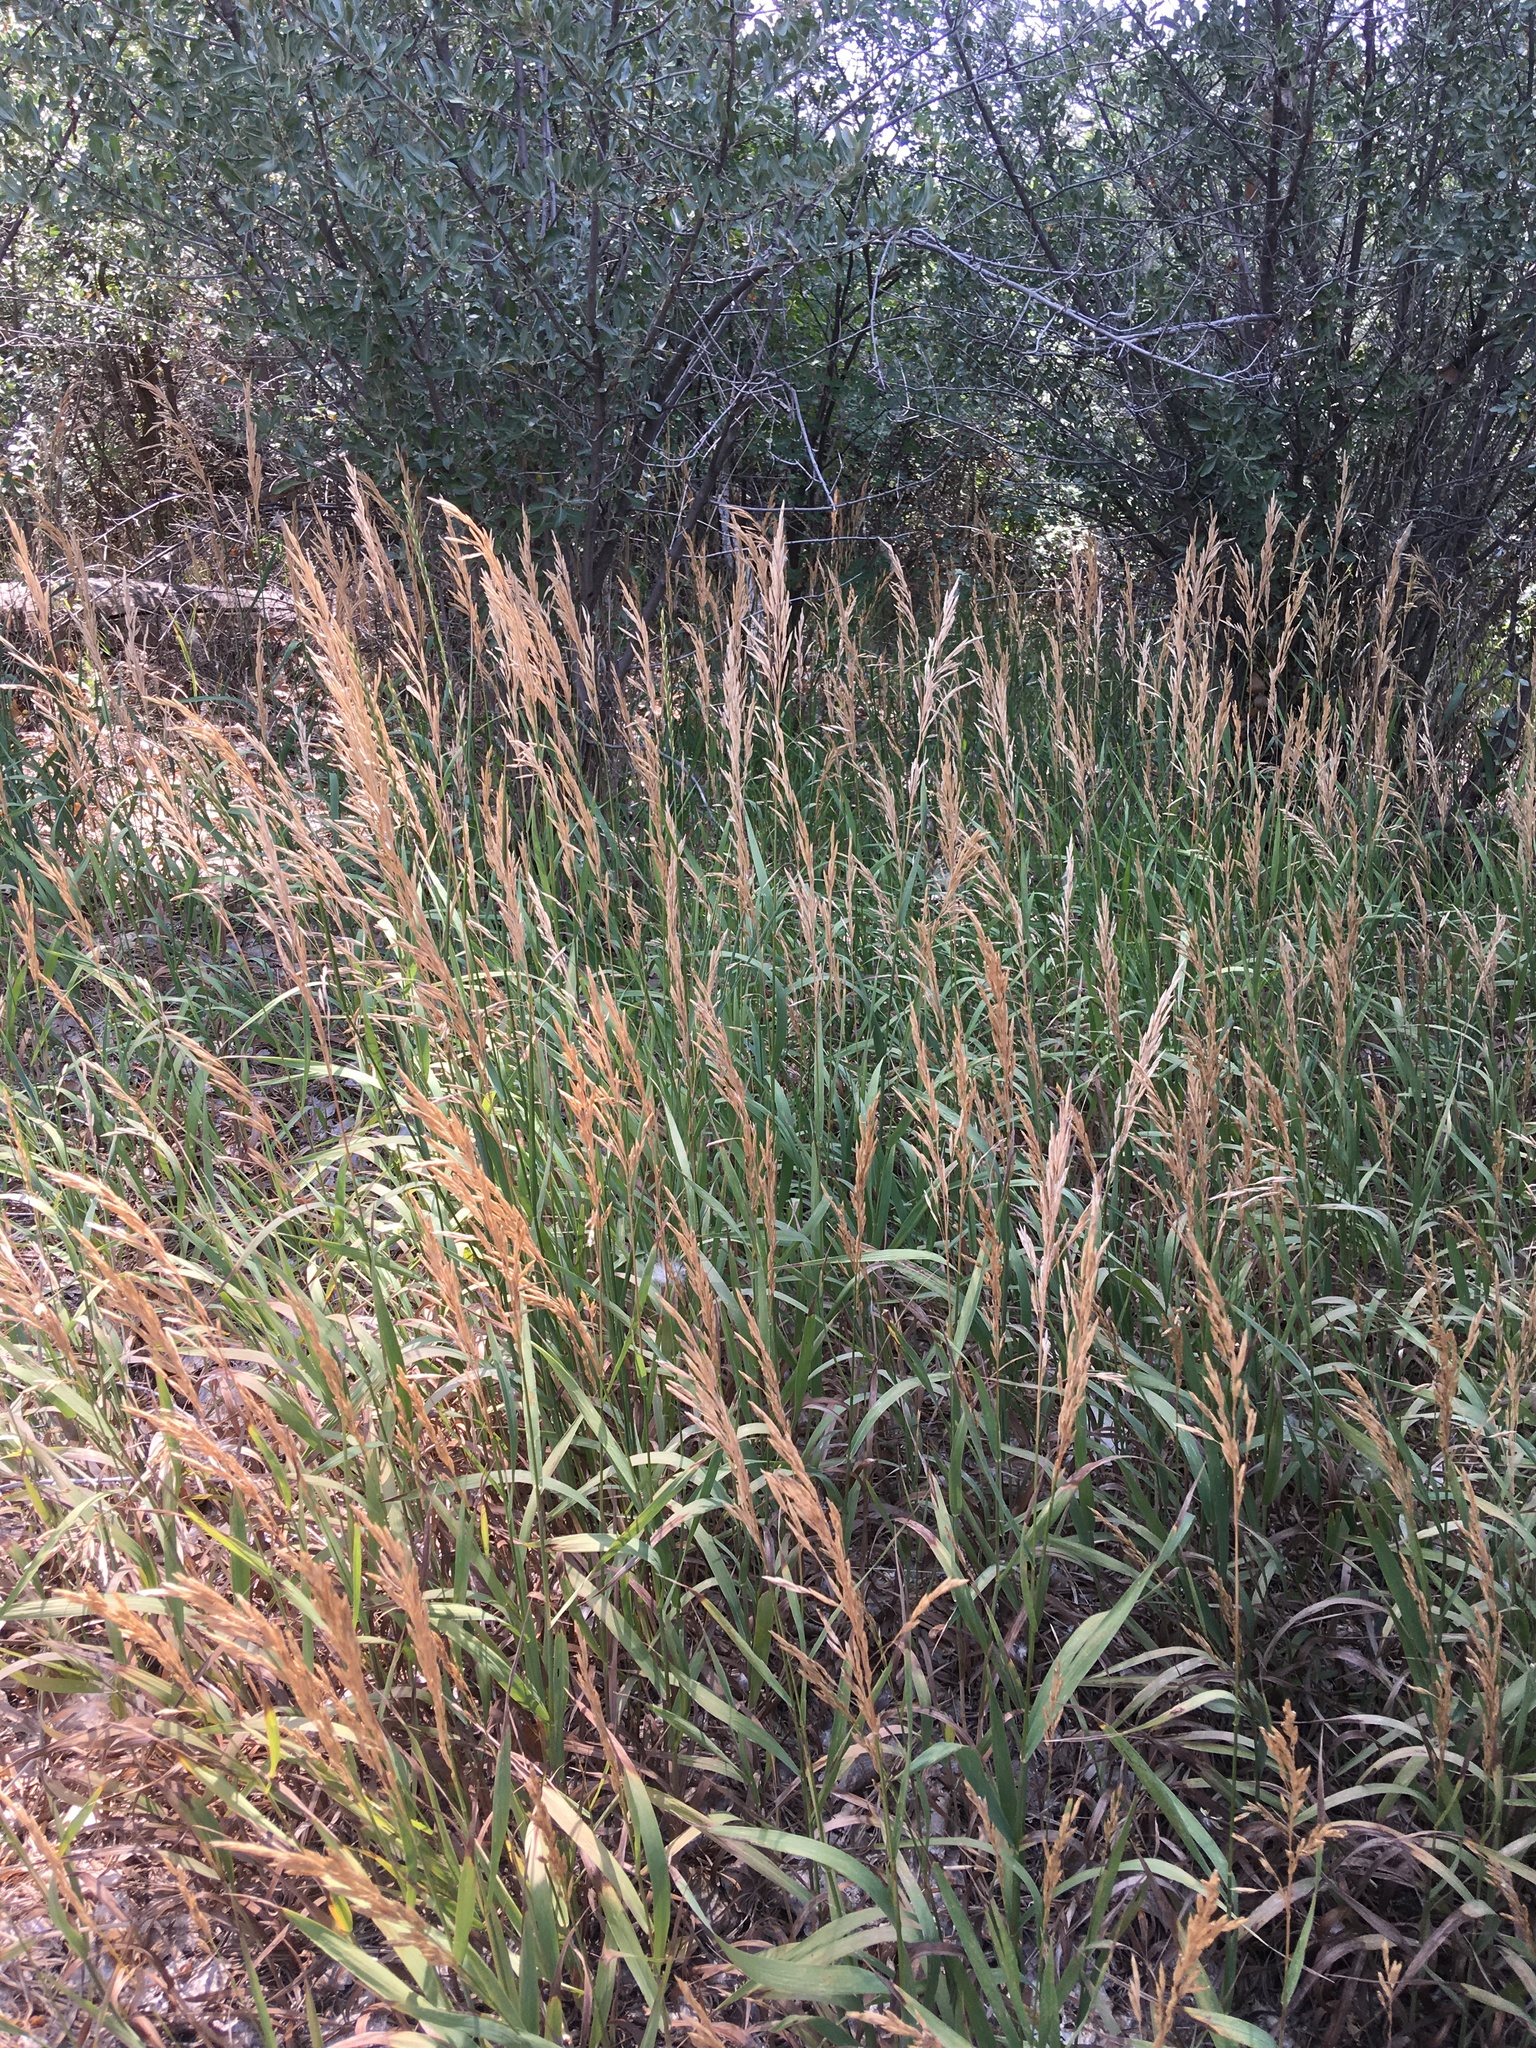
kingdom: Plantae
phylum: Tracheophyta
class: Liliopsida
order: Poales
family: Poaceae
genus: Bromus
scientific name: Bromus inermis
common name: Smooth brome
